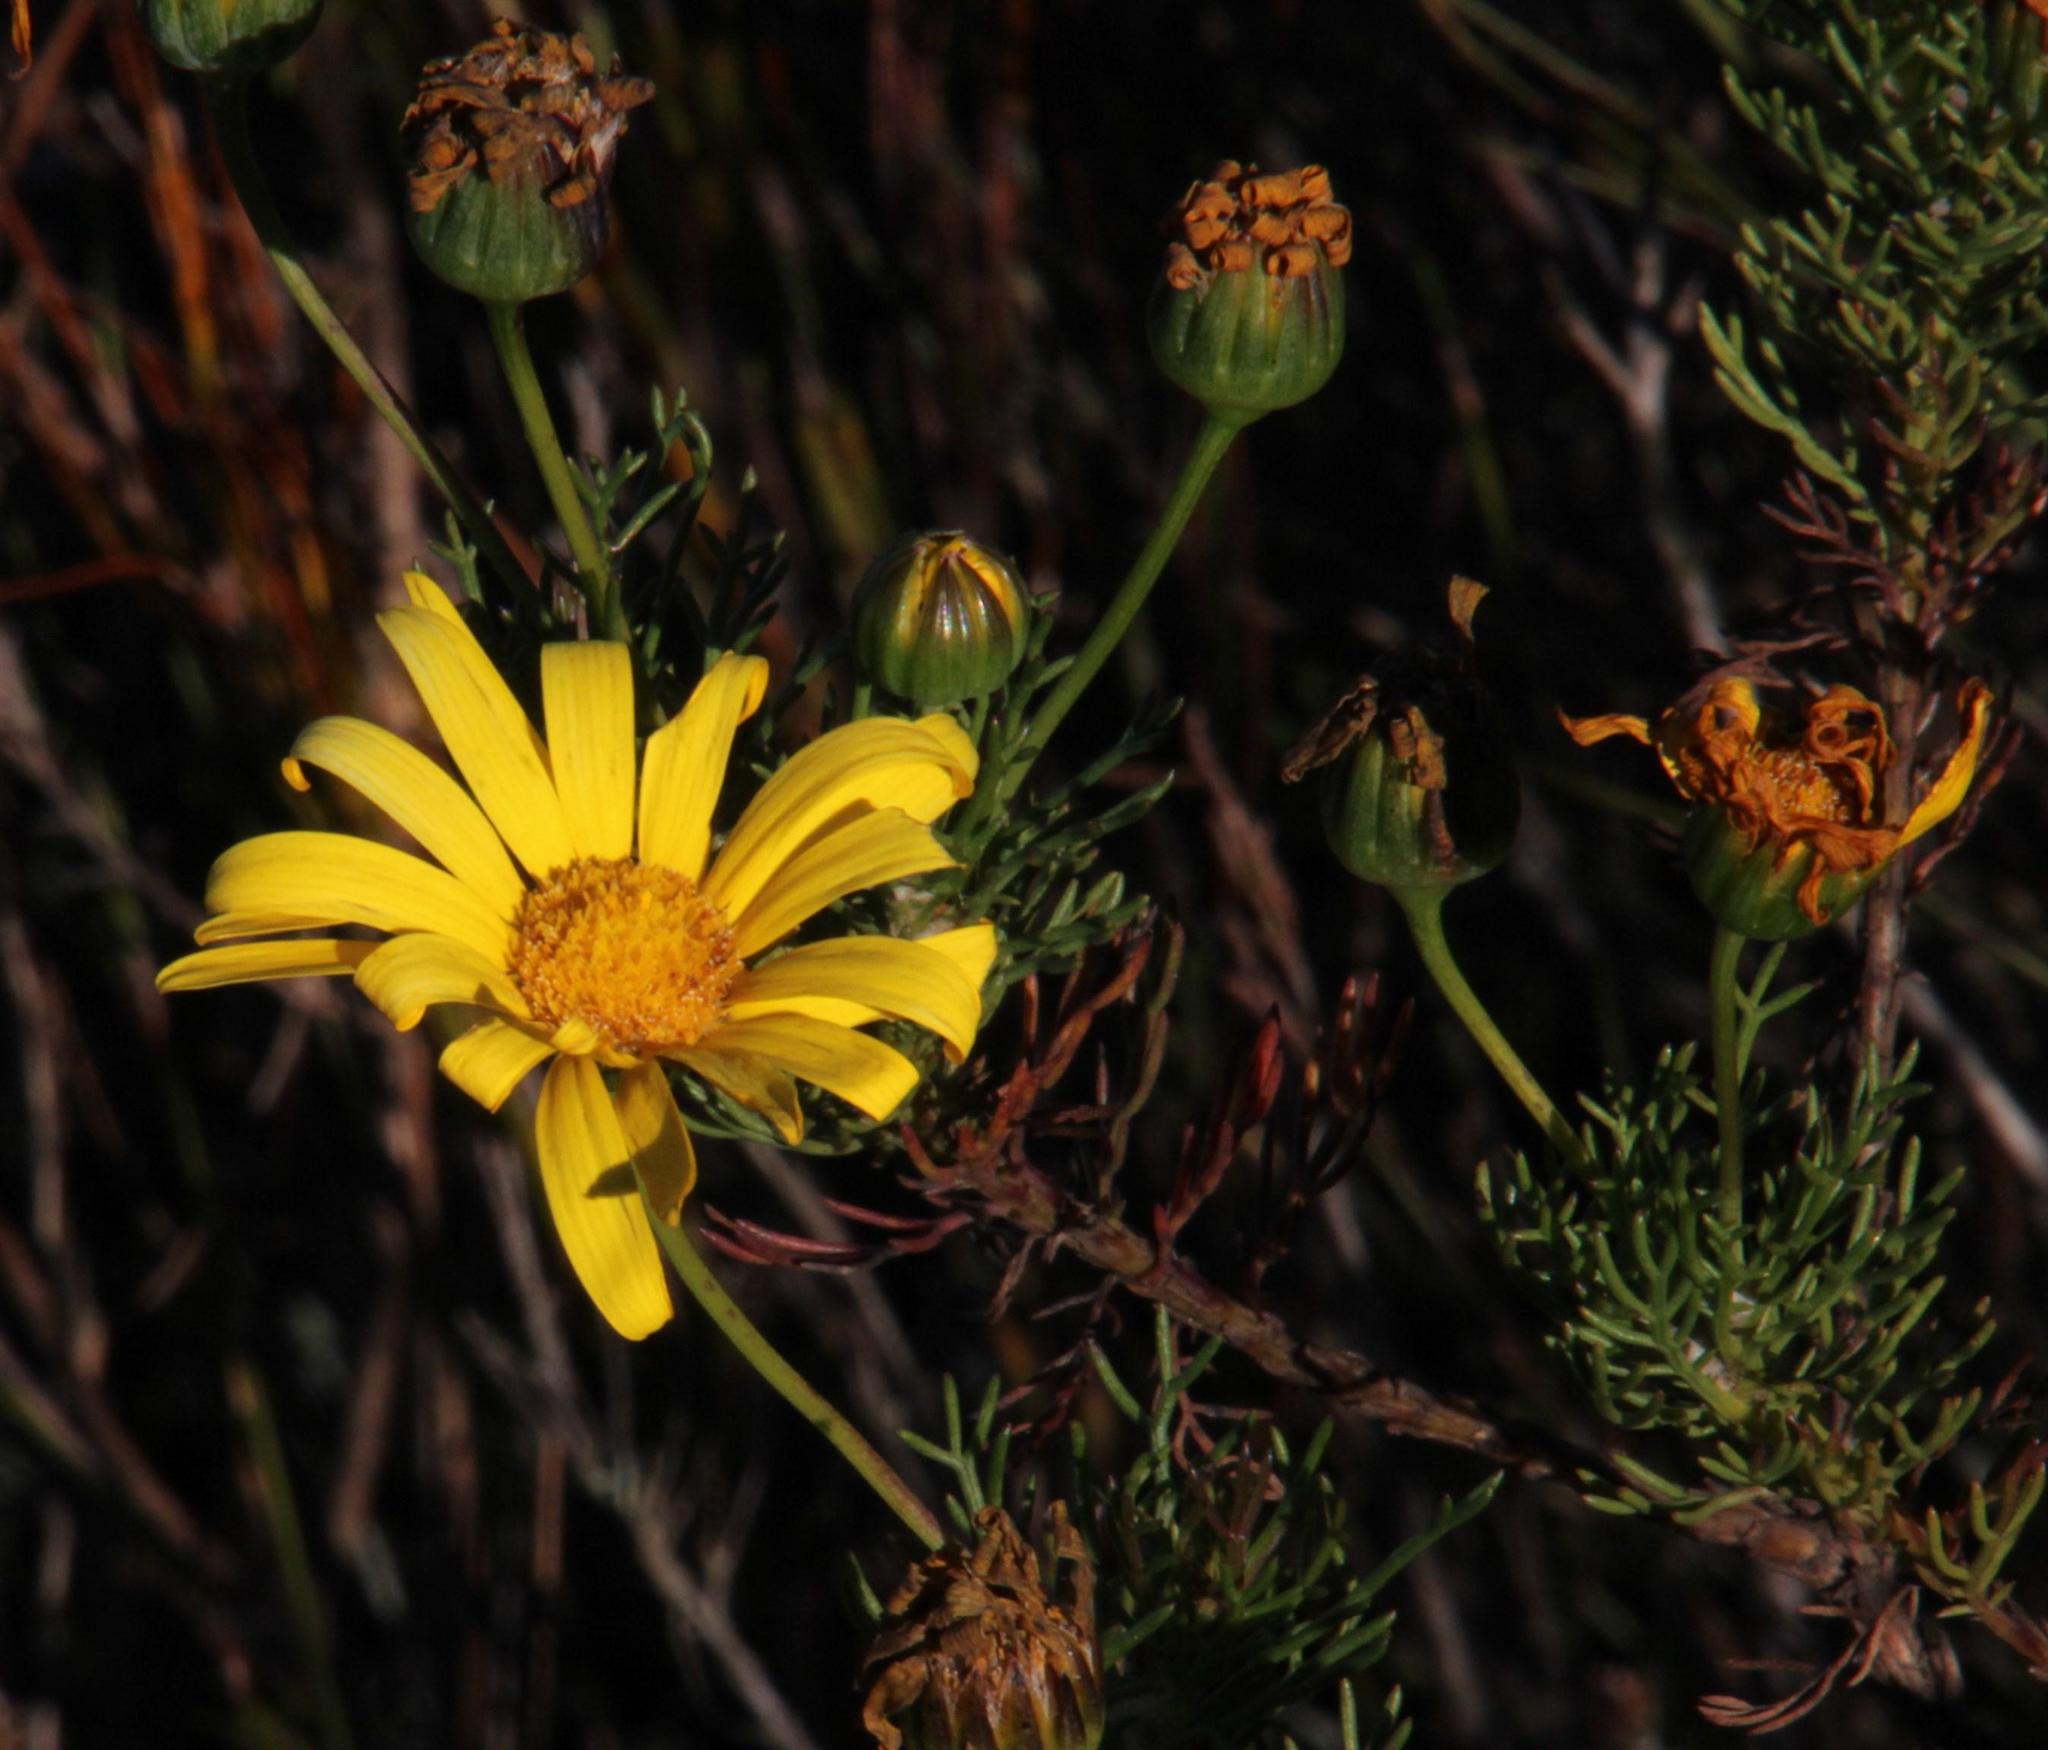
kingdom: Plantae
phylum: Tracheophyta
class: Magnoliopsida
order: Asterales
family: Asteraceae
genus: Euryops
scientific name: Euryops abrotanifolius
